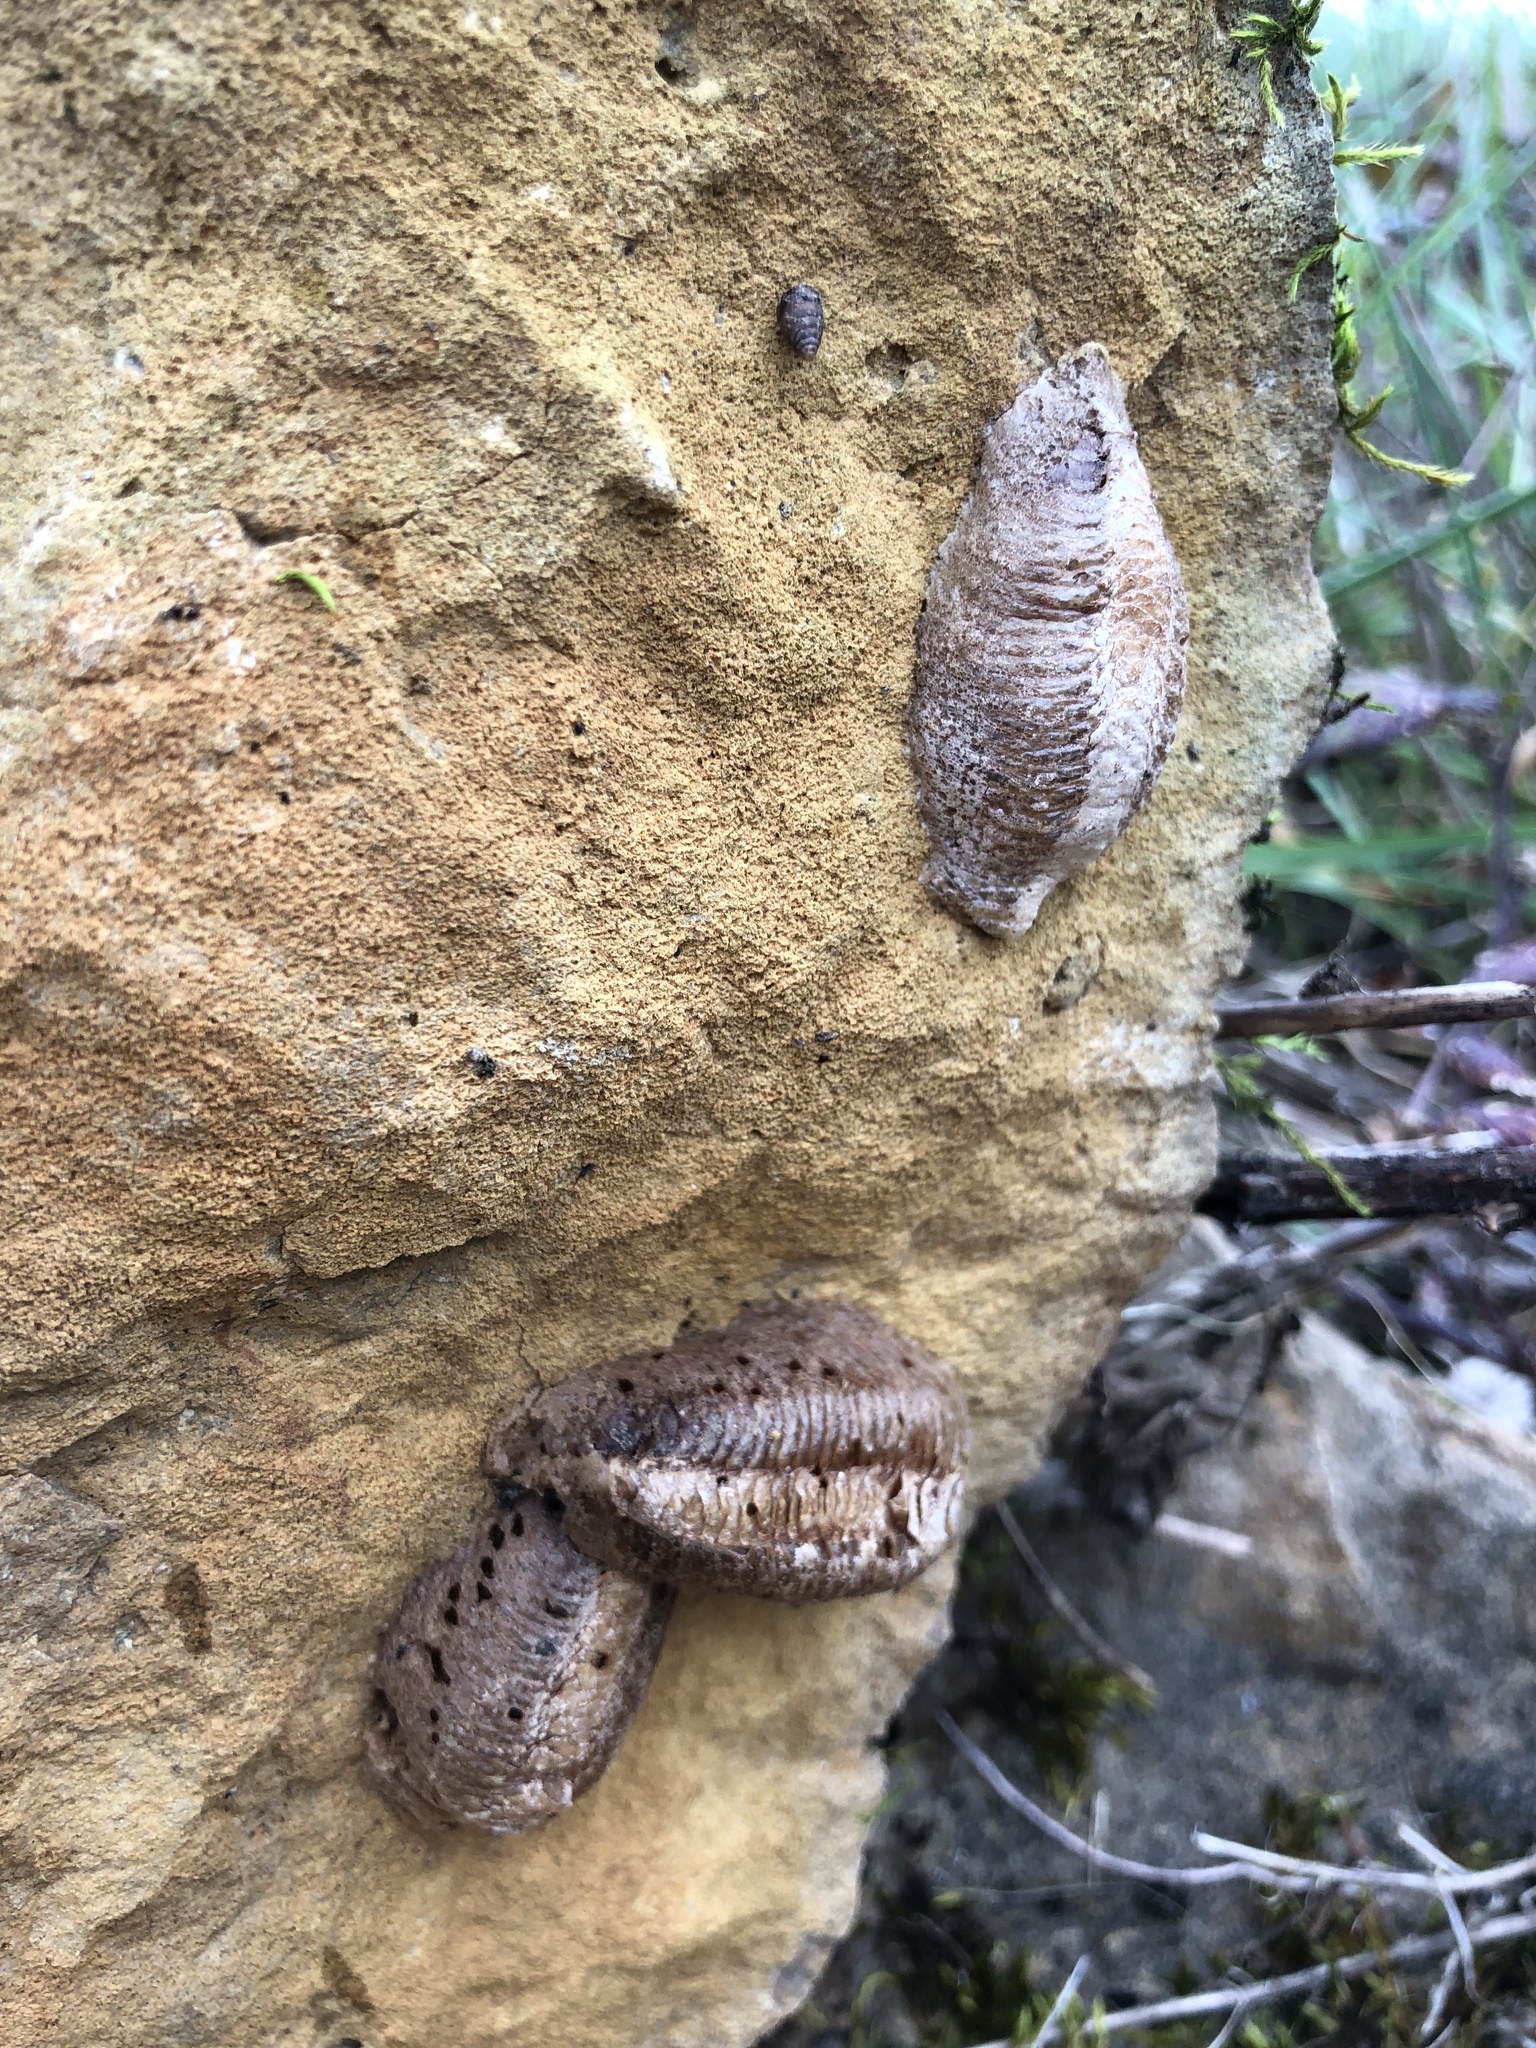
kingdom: Animalia
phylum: Arthropoda
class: Insecta
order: Mantodea
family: Mantidae
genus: Mantis
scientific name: Mantis religiosa
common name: Praying mantis
